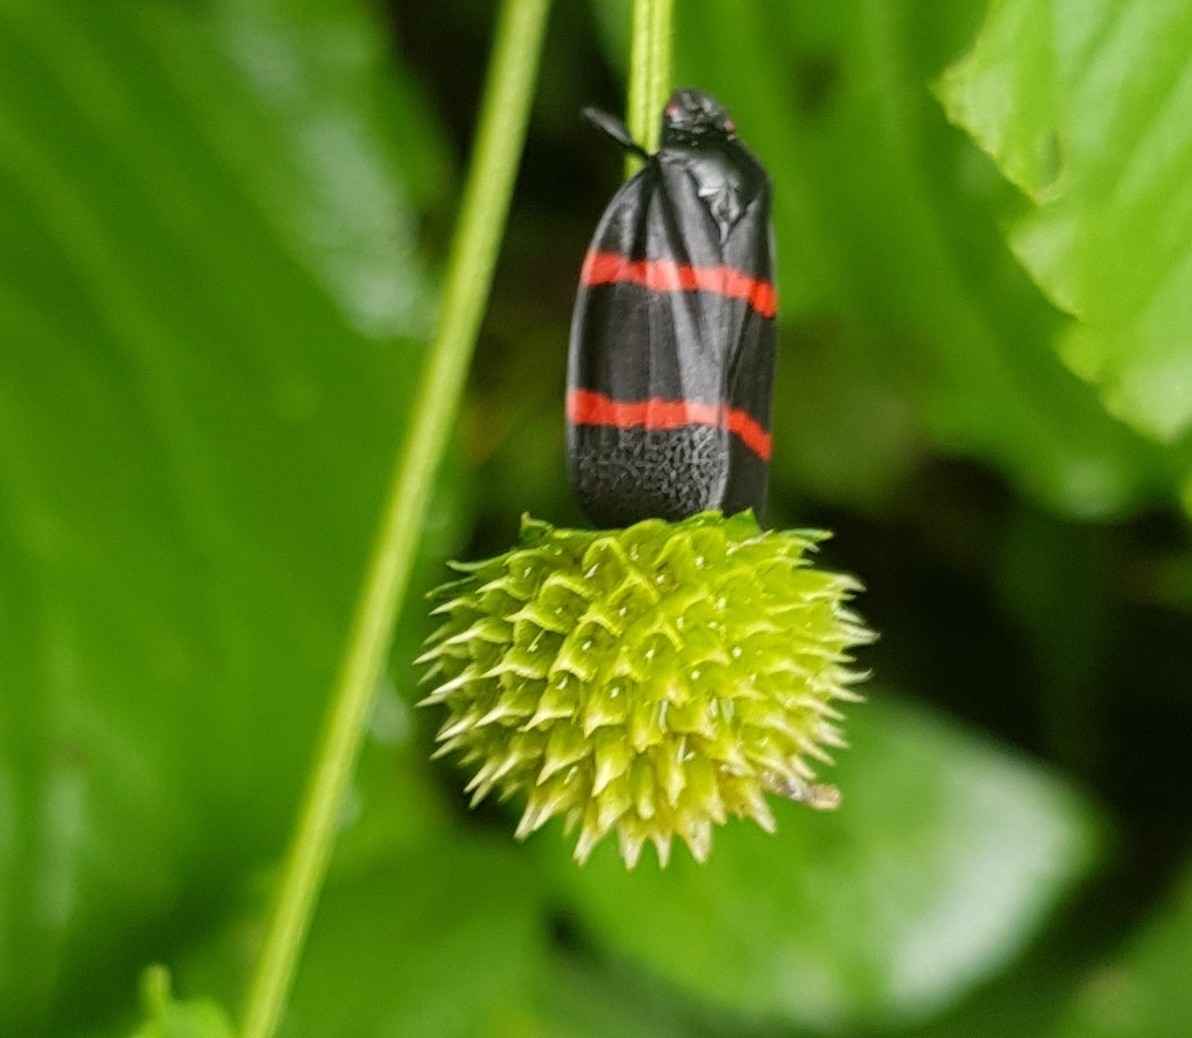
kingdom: Animalia
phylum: Arthropoda
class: Insecta
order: Hemiptera
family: Cercopidae
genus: Huaina
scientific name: Huaina inca
